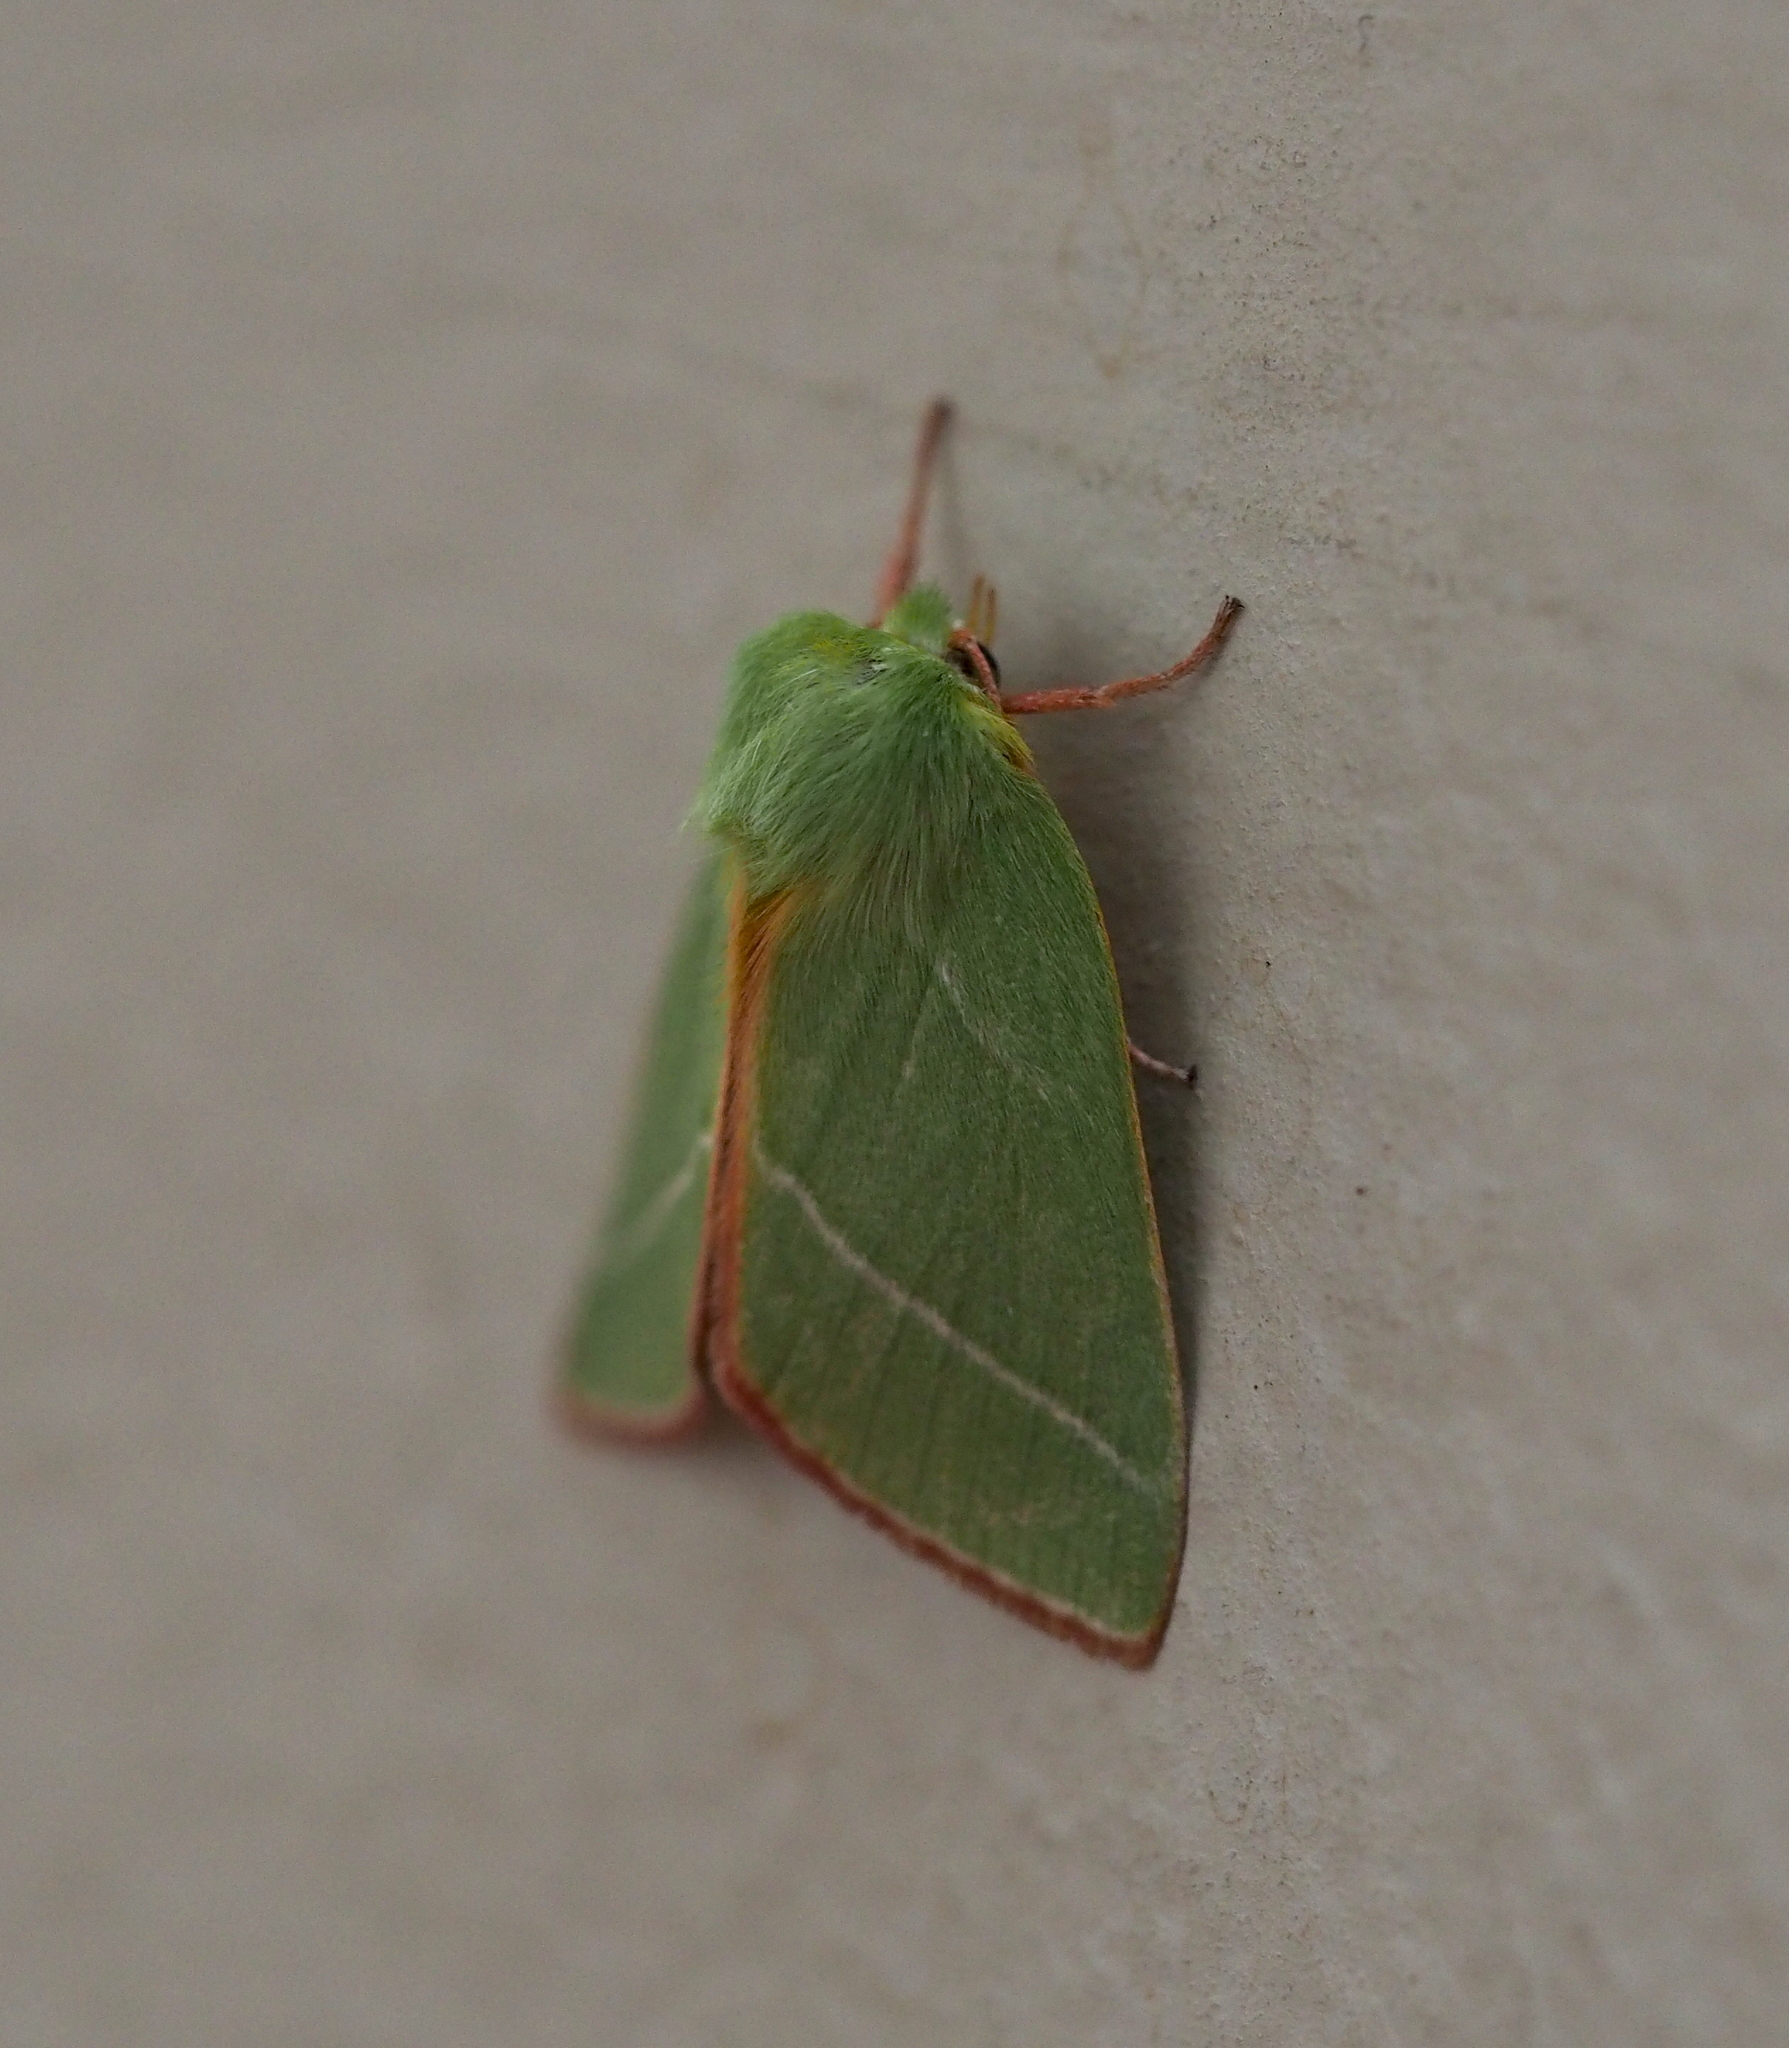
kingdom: Animalia
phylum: Arthropoda
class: Insecta
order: Lepidoptera
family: Nolidae
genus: Pseudoips
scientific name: Pseudoips prasinana
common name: Green silver-lines
